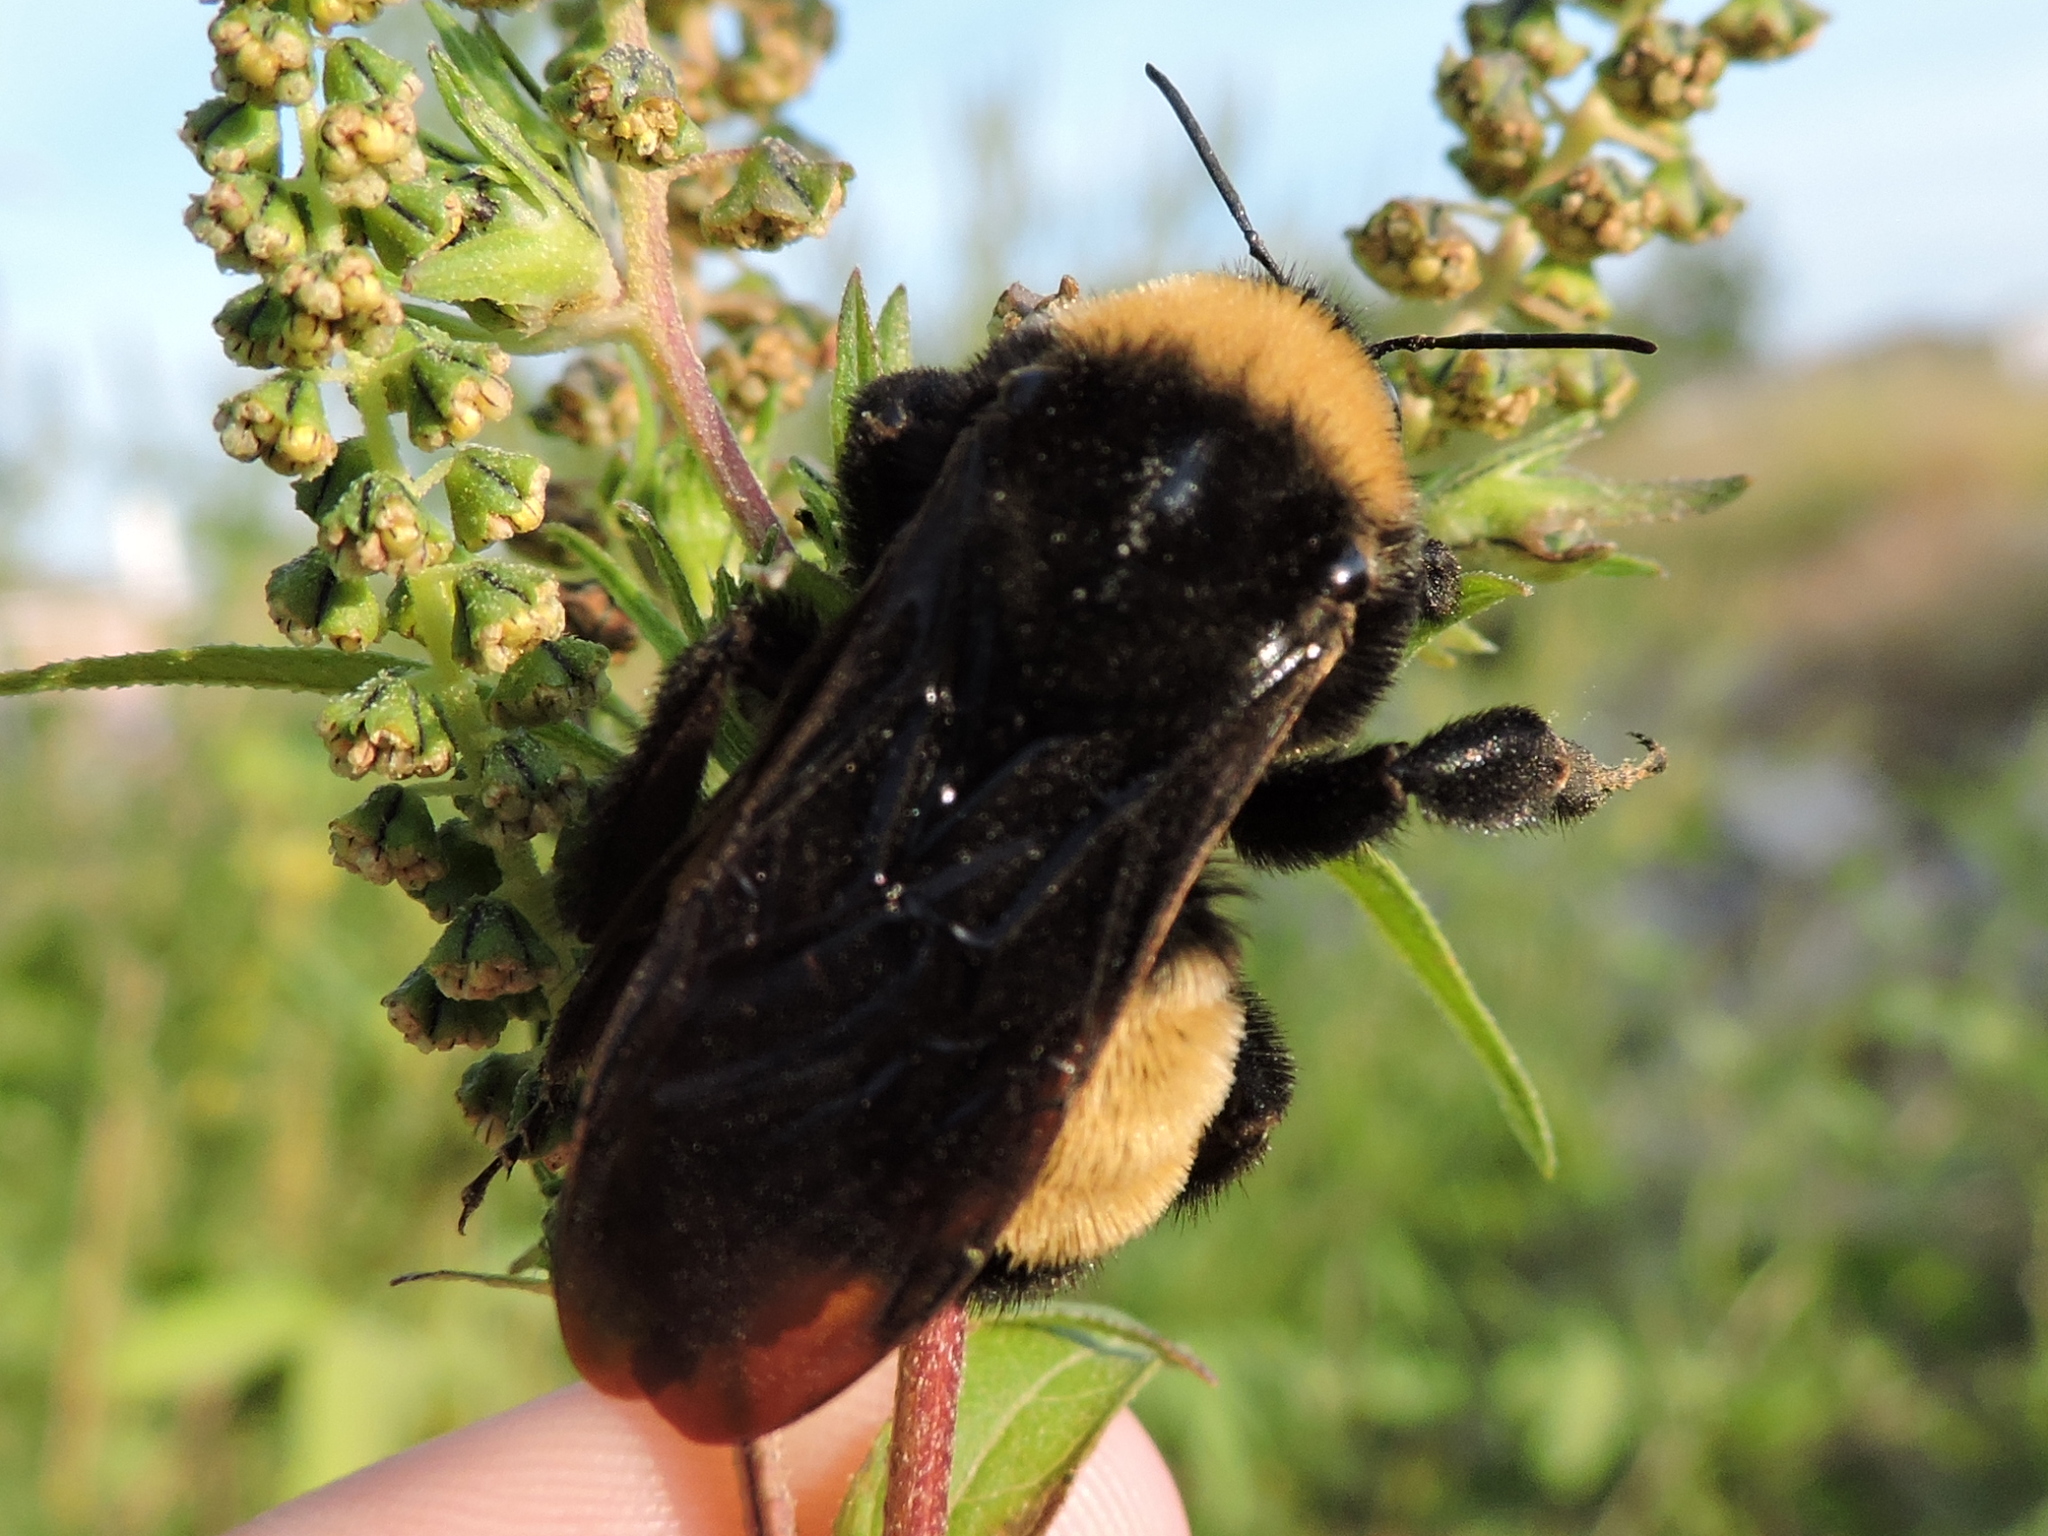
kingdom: Animalia
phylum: Arthropoda
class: Insecta
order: Hymenoptera
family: Apidae
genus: Bombus
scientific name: Bombus pensylvanicus
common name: Bumble bee
